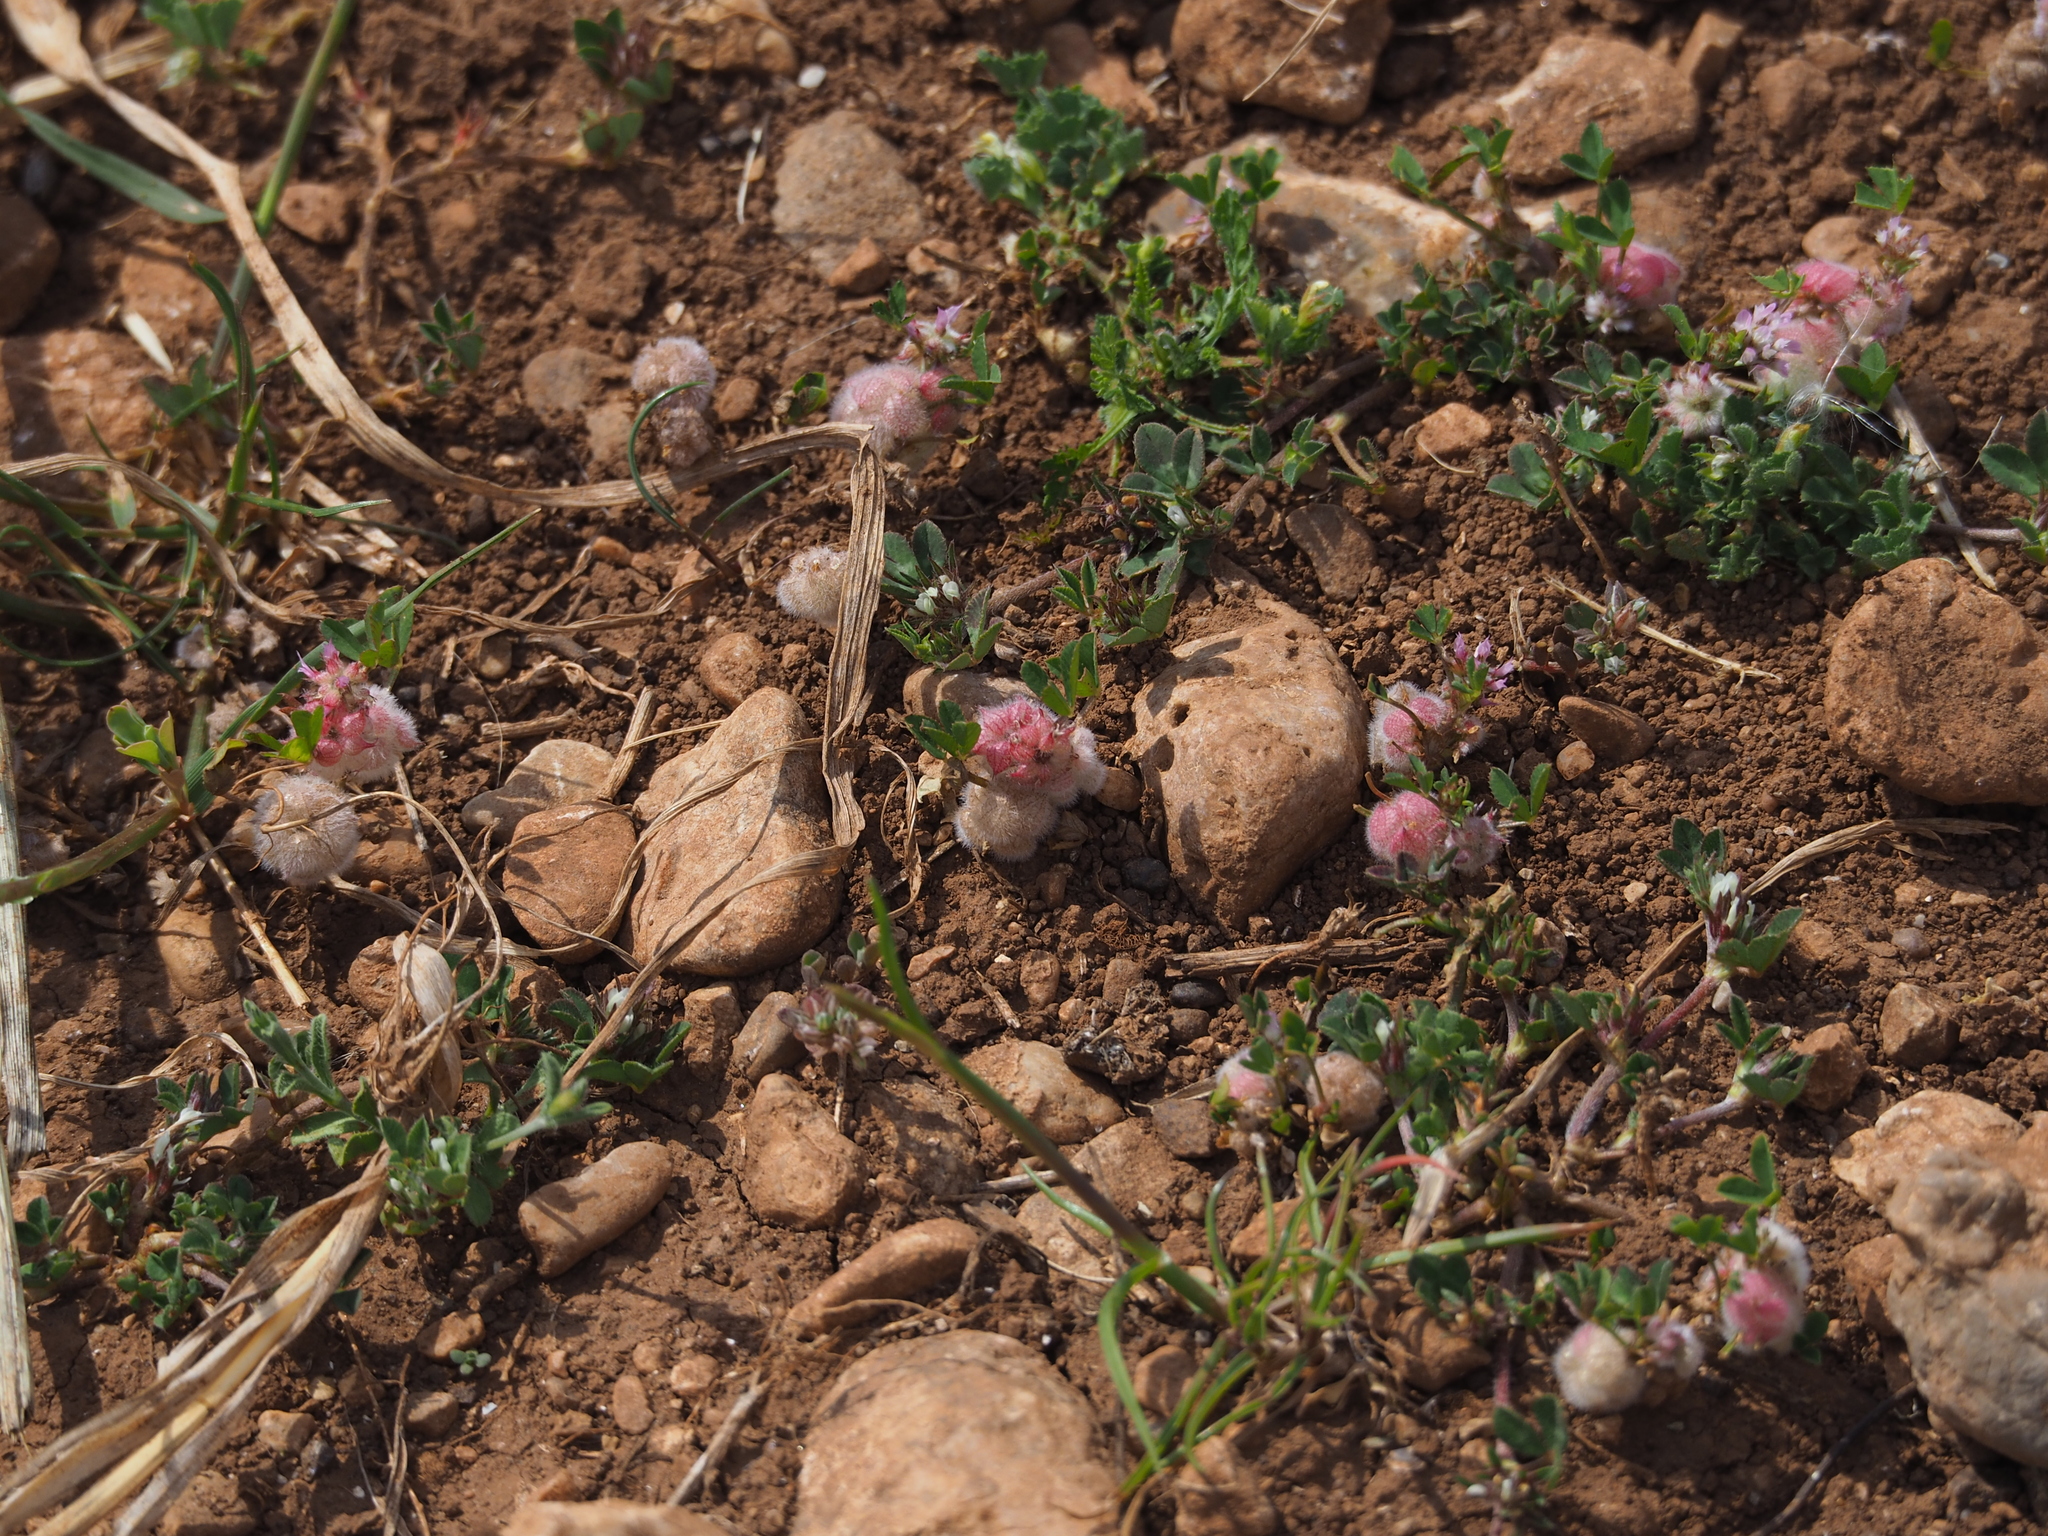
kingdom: Plantae
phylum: Tracheophyta
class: Magnoliopsida
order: Fabales
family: Fabaceae
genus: Trifolium
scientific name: Trifolium tomentosum
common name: Woolly clover
